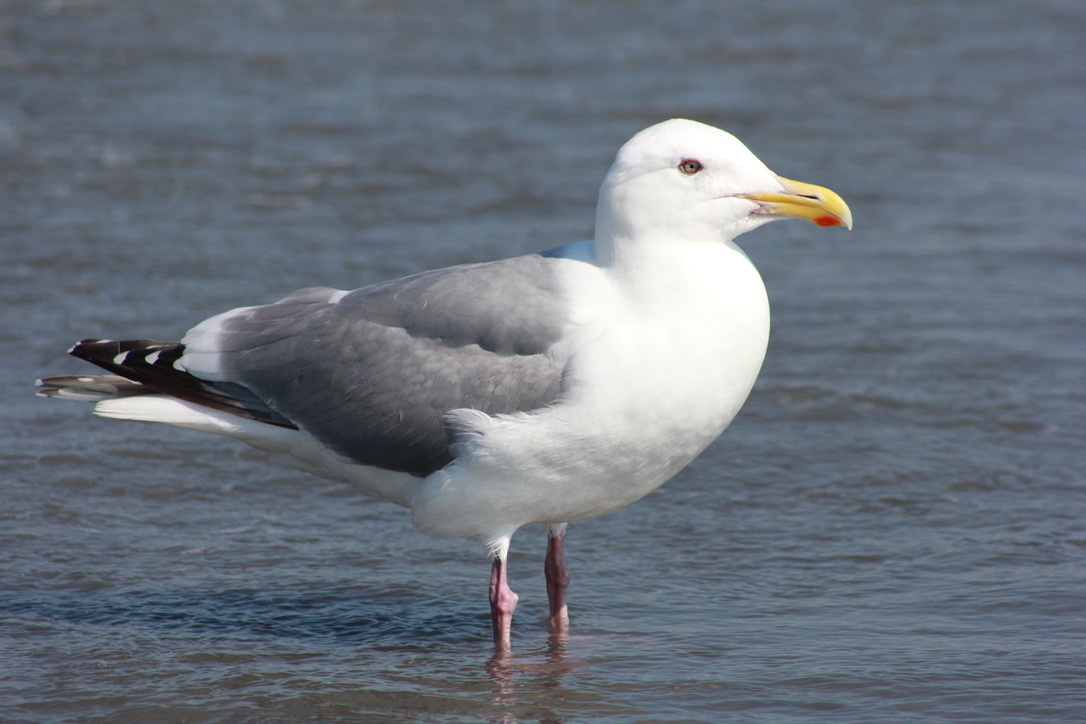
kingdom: Animalia
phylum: Chordata
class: Aves
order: Charadriiformes
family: Laridae
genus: Larus
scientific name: Larus
